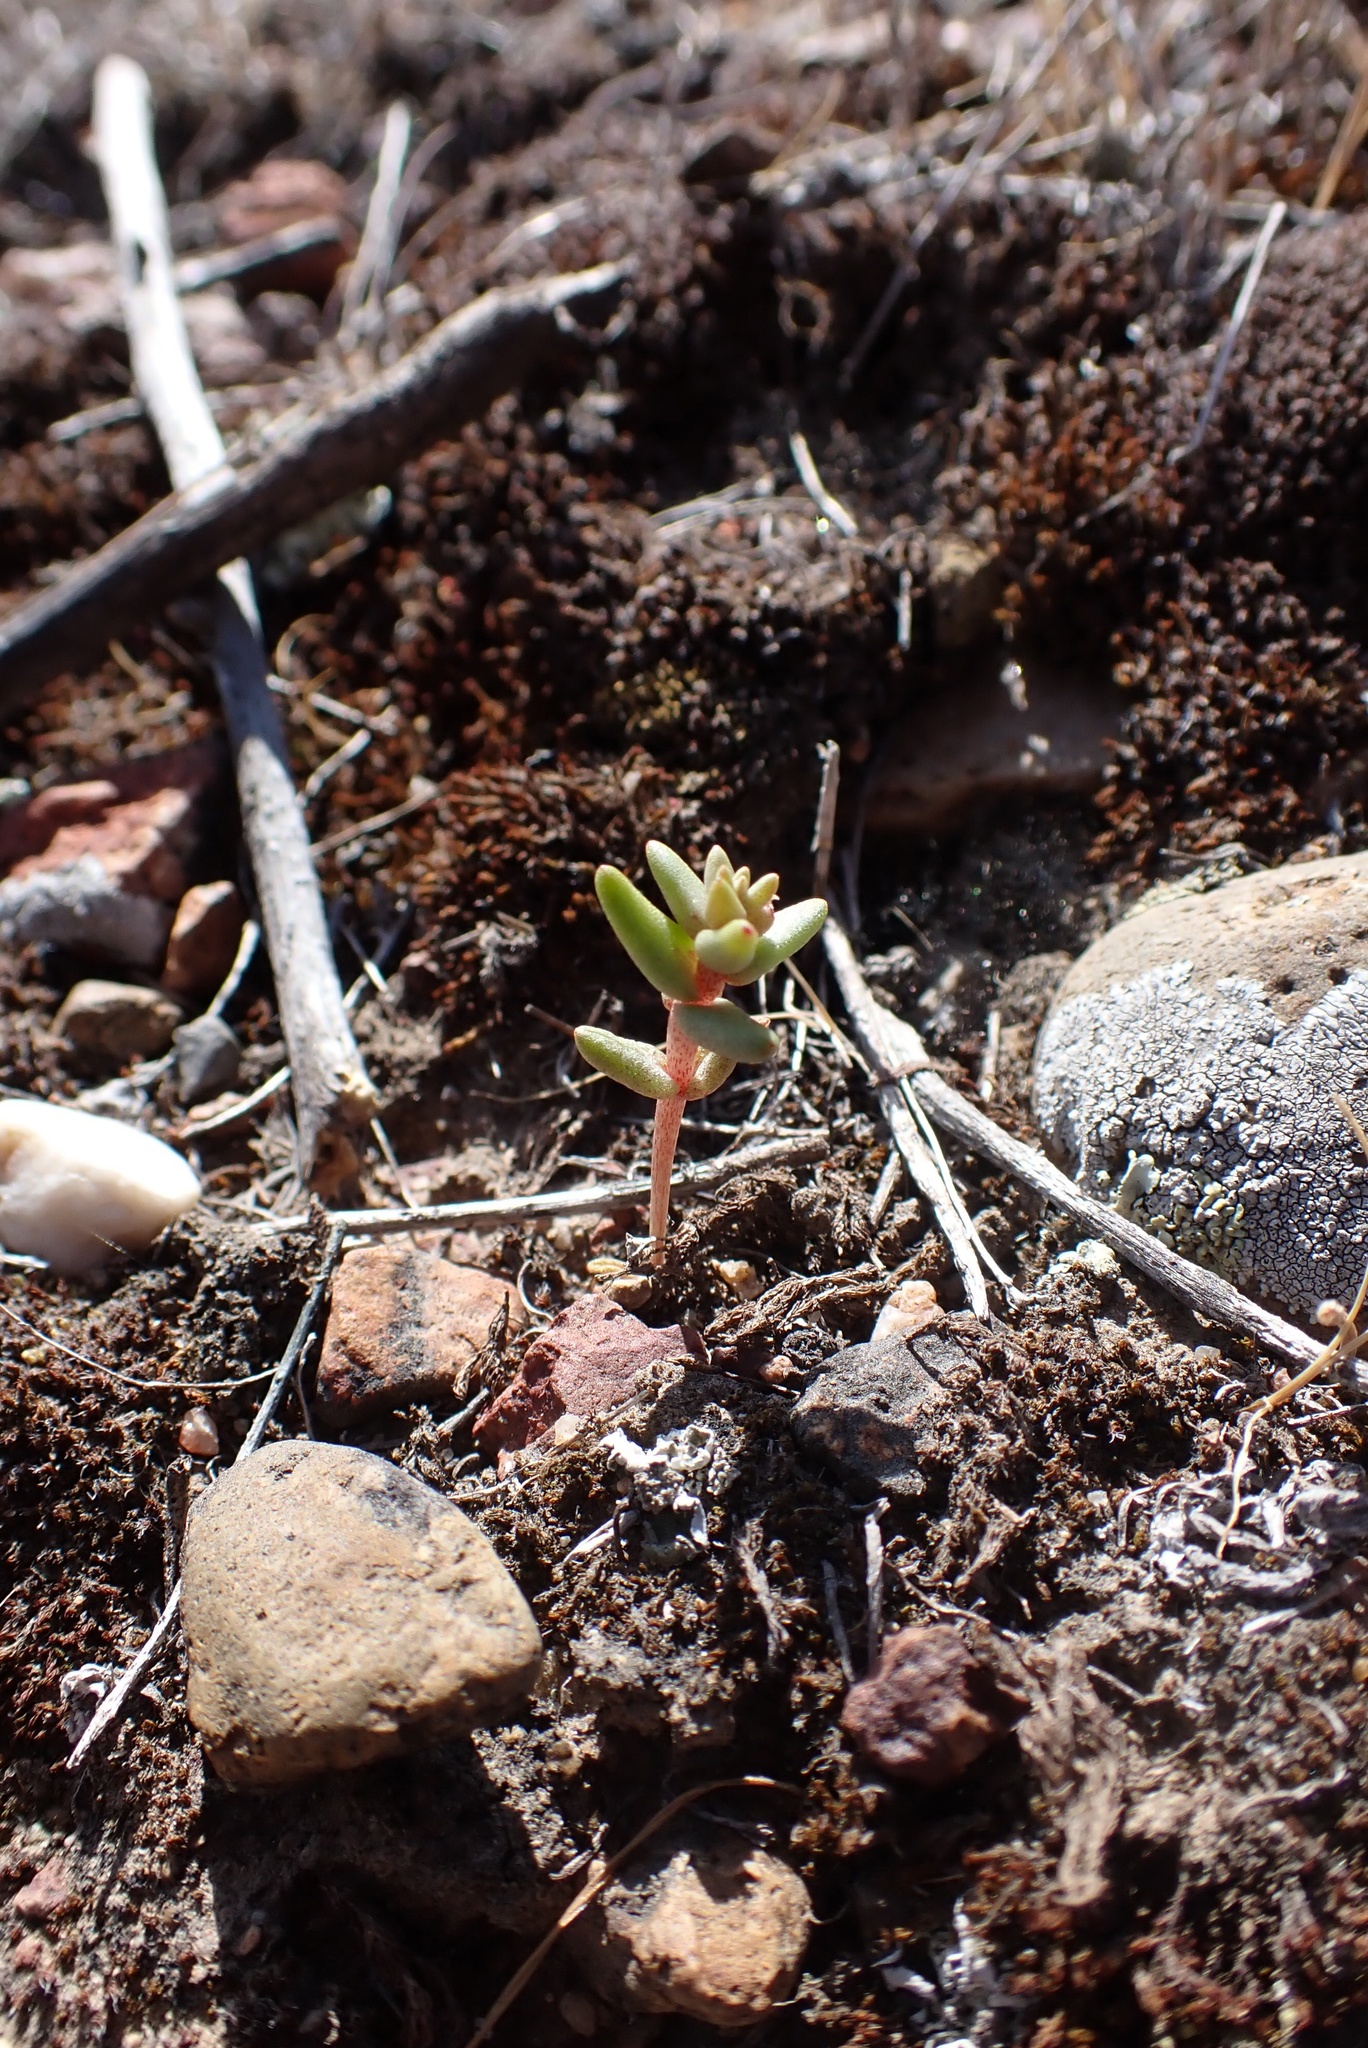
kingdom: Plantae
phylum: Tracheophyta
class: Magnoliopsida
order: Saxifragales
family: Crassulaceae
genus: Dudleya
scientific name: Dudleya variegata
